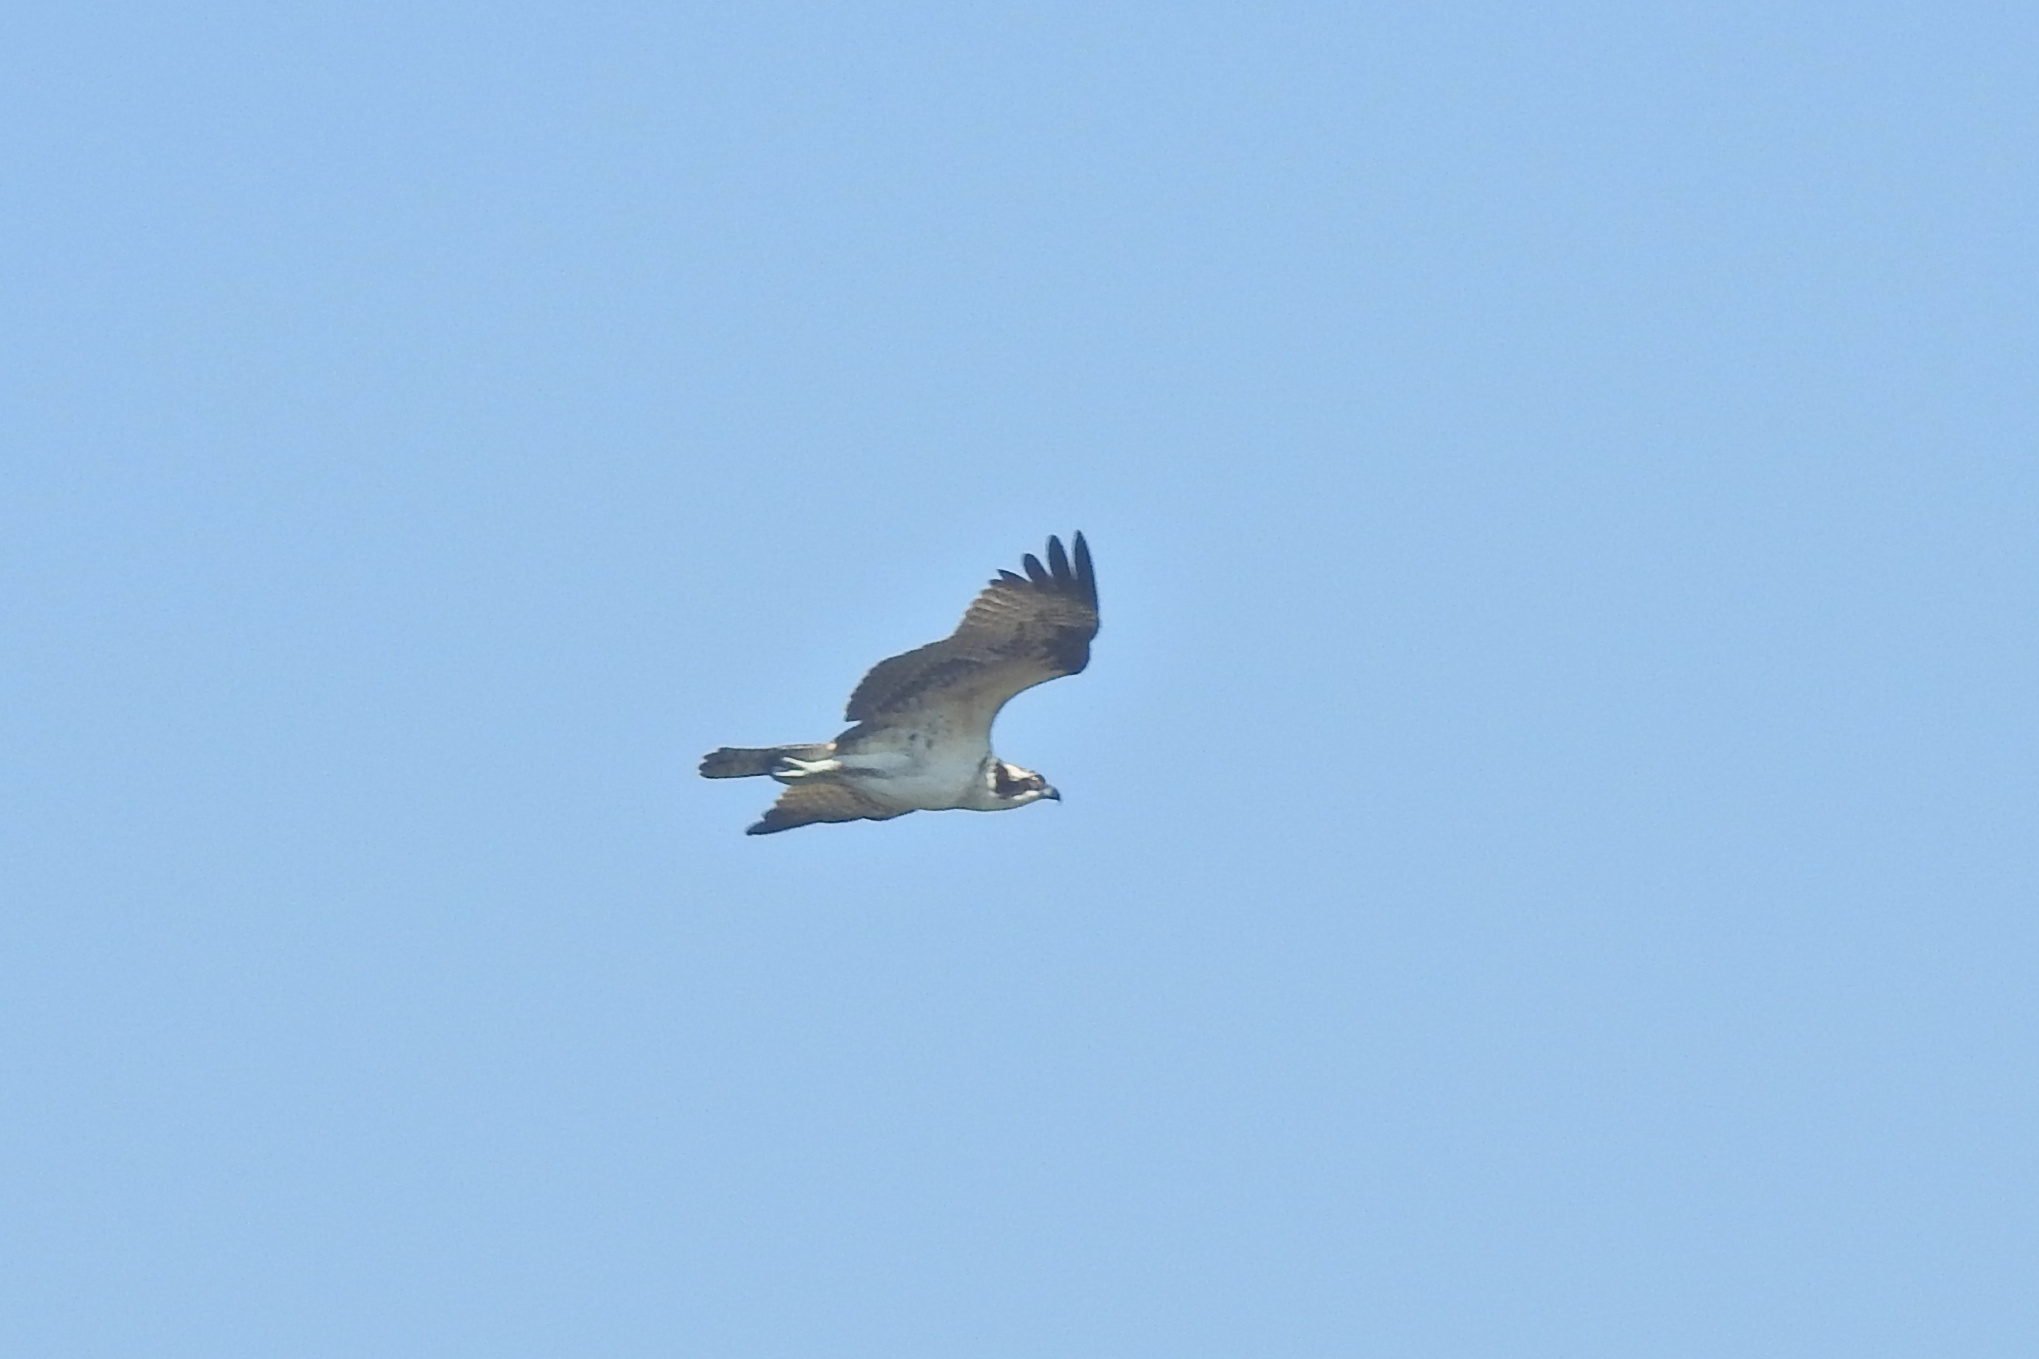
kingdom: Animalia
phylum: Chordata
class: Aves
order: Accipitriformes
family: Pandionidae
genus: Pandion
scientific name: Pandion haliaetus
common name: Osprey
